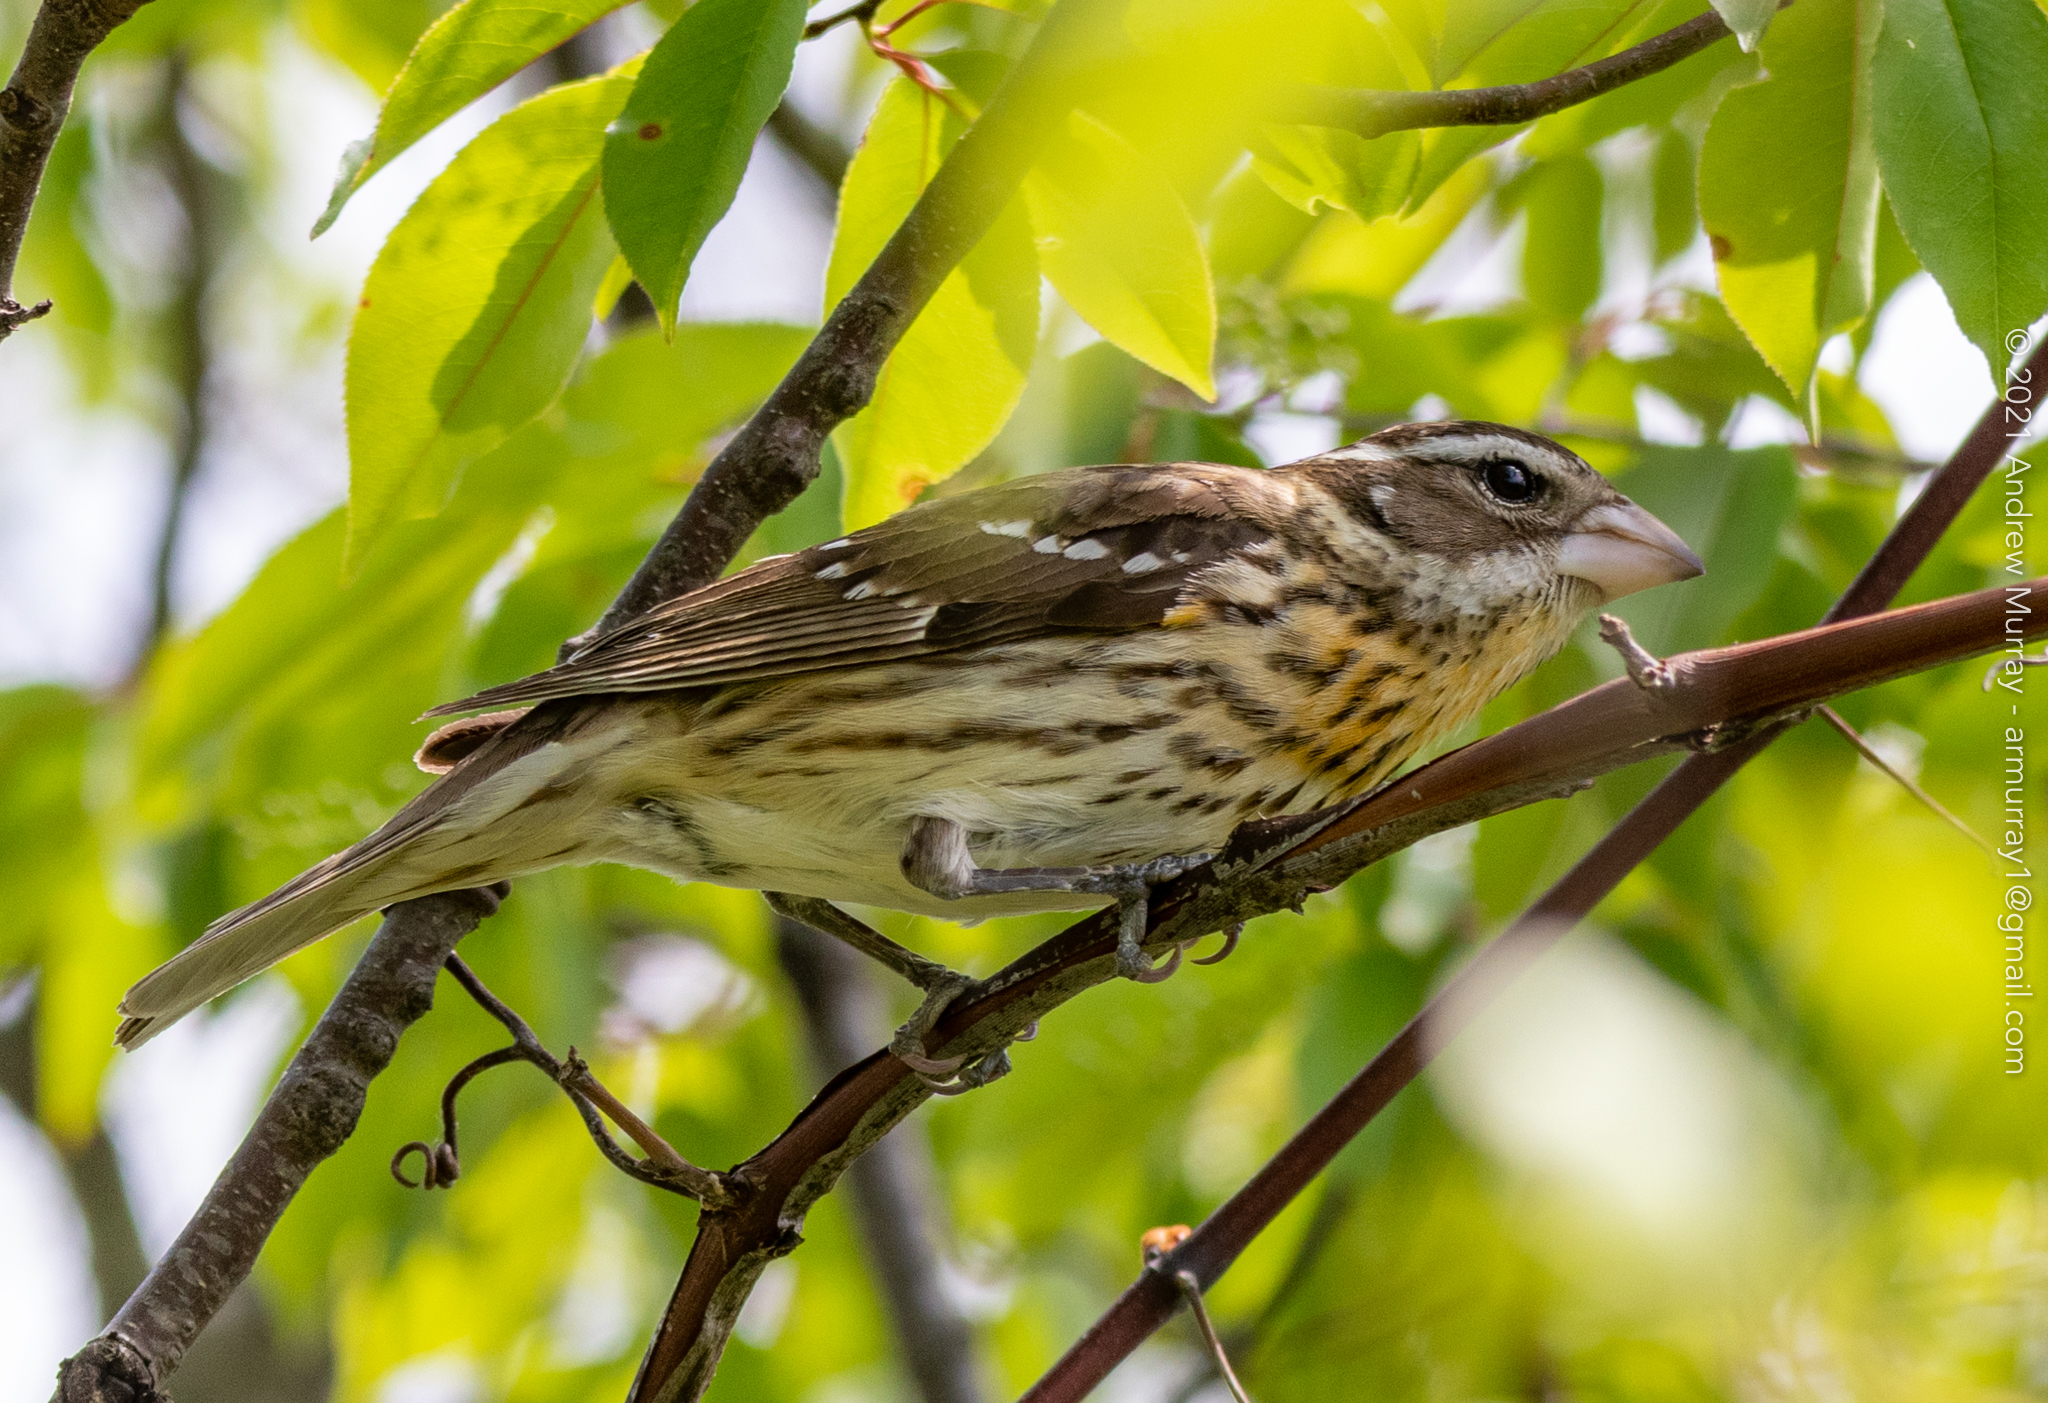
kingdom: Animalia
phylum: Chordata
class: Aves
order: Passeriformes
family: Cardinalidae
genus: Pheucticus
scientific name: Pheucticus ludovicianus
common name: Rose-breasted grosbeak
